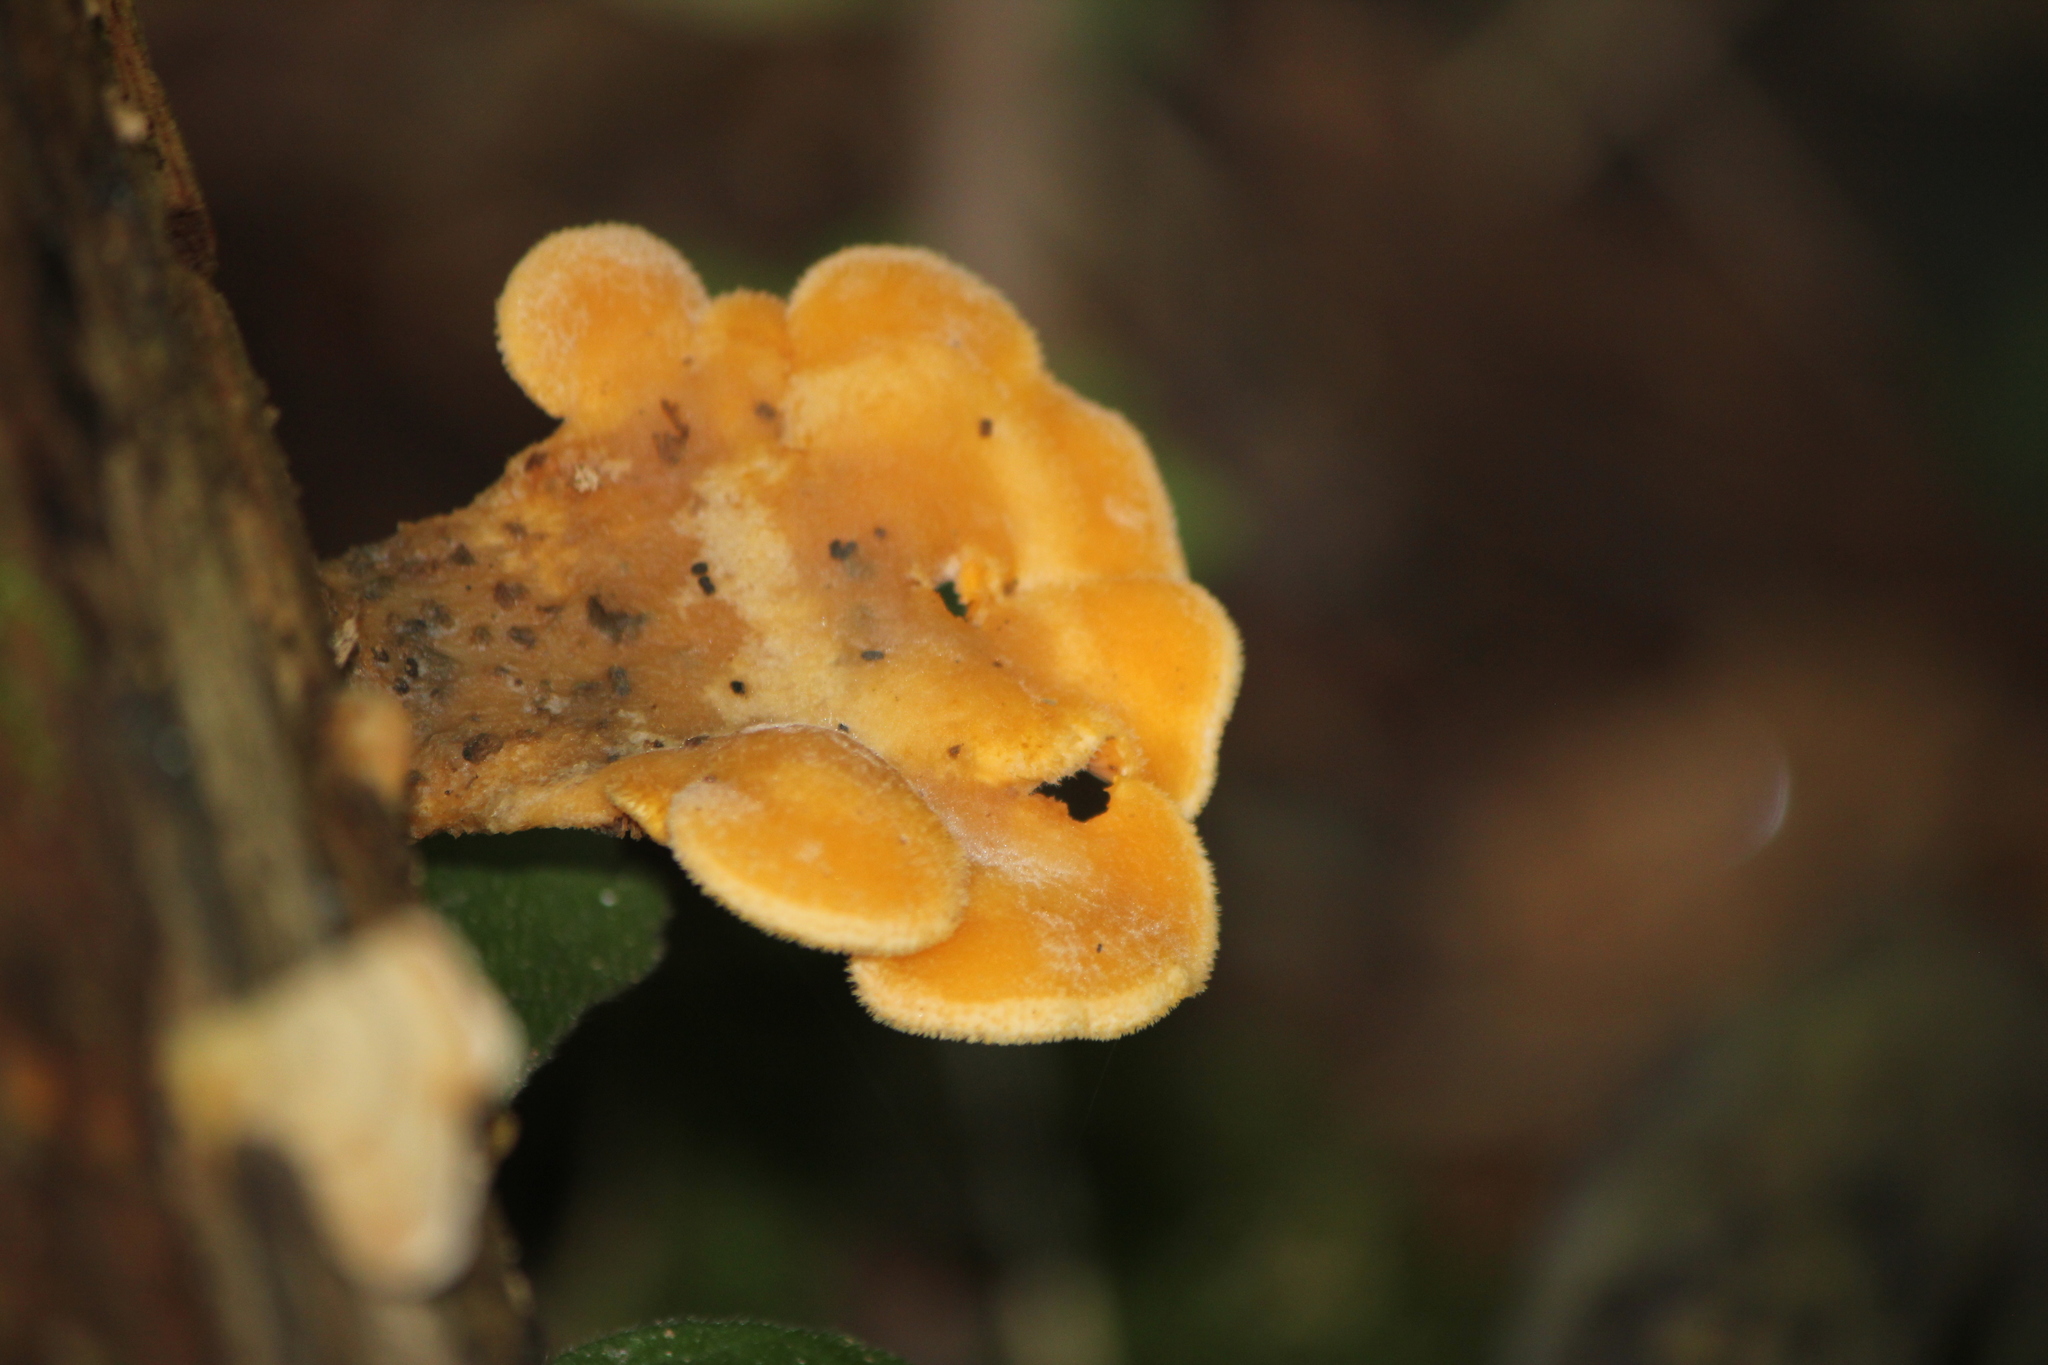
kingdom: Fungi
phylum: Basidiomycota
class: Agaricomycetes
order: Agaricales
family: Phyllotopsidaceae
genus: Phyllotopsis
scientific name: Phyllotopsis nidulans
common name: Orange mock oyster
